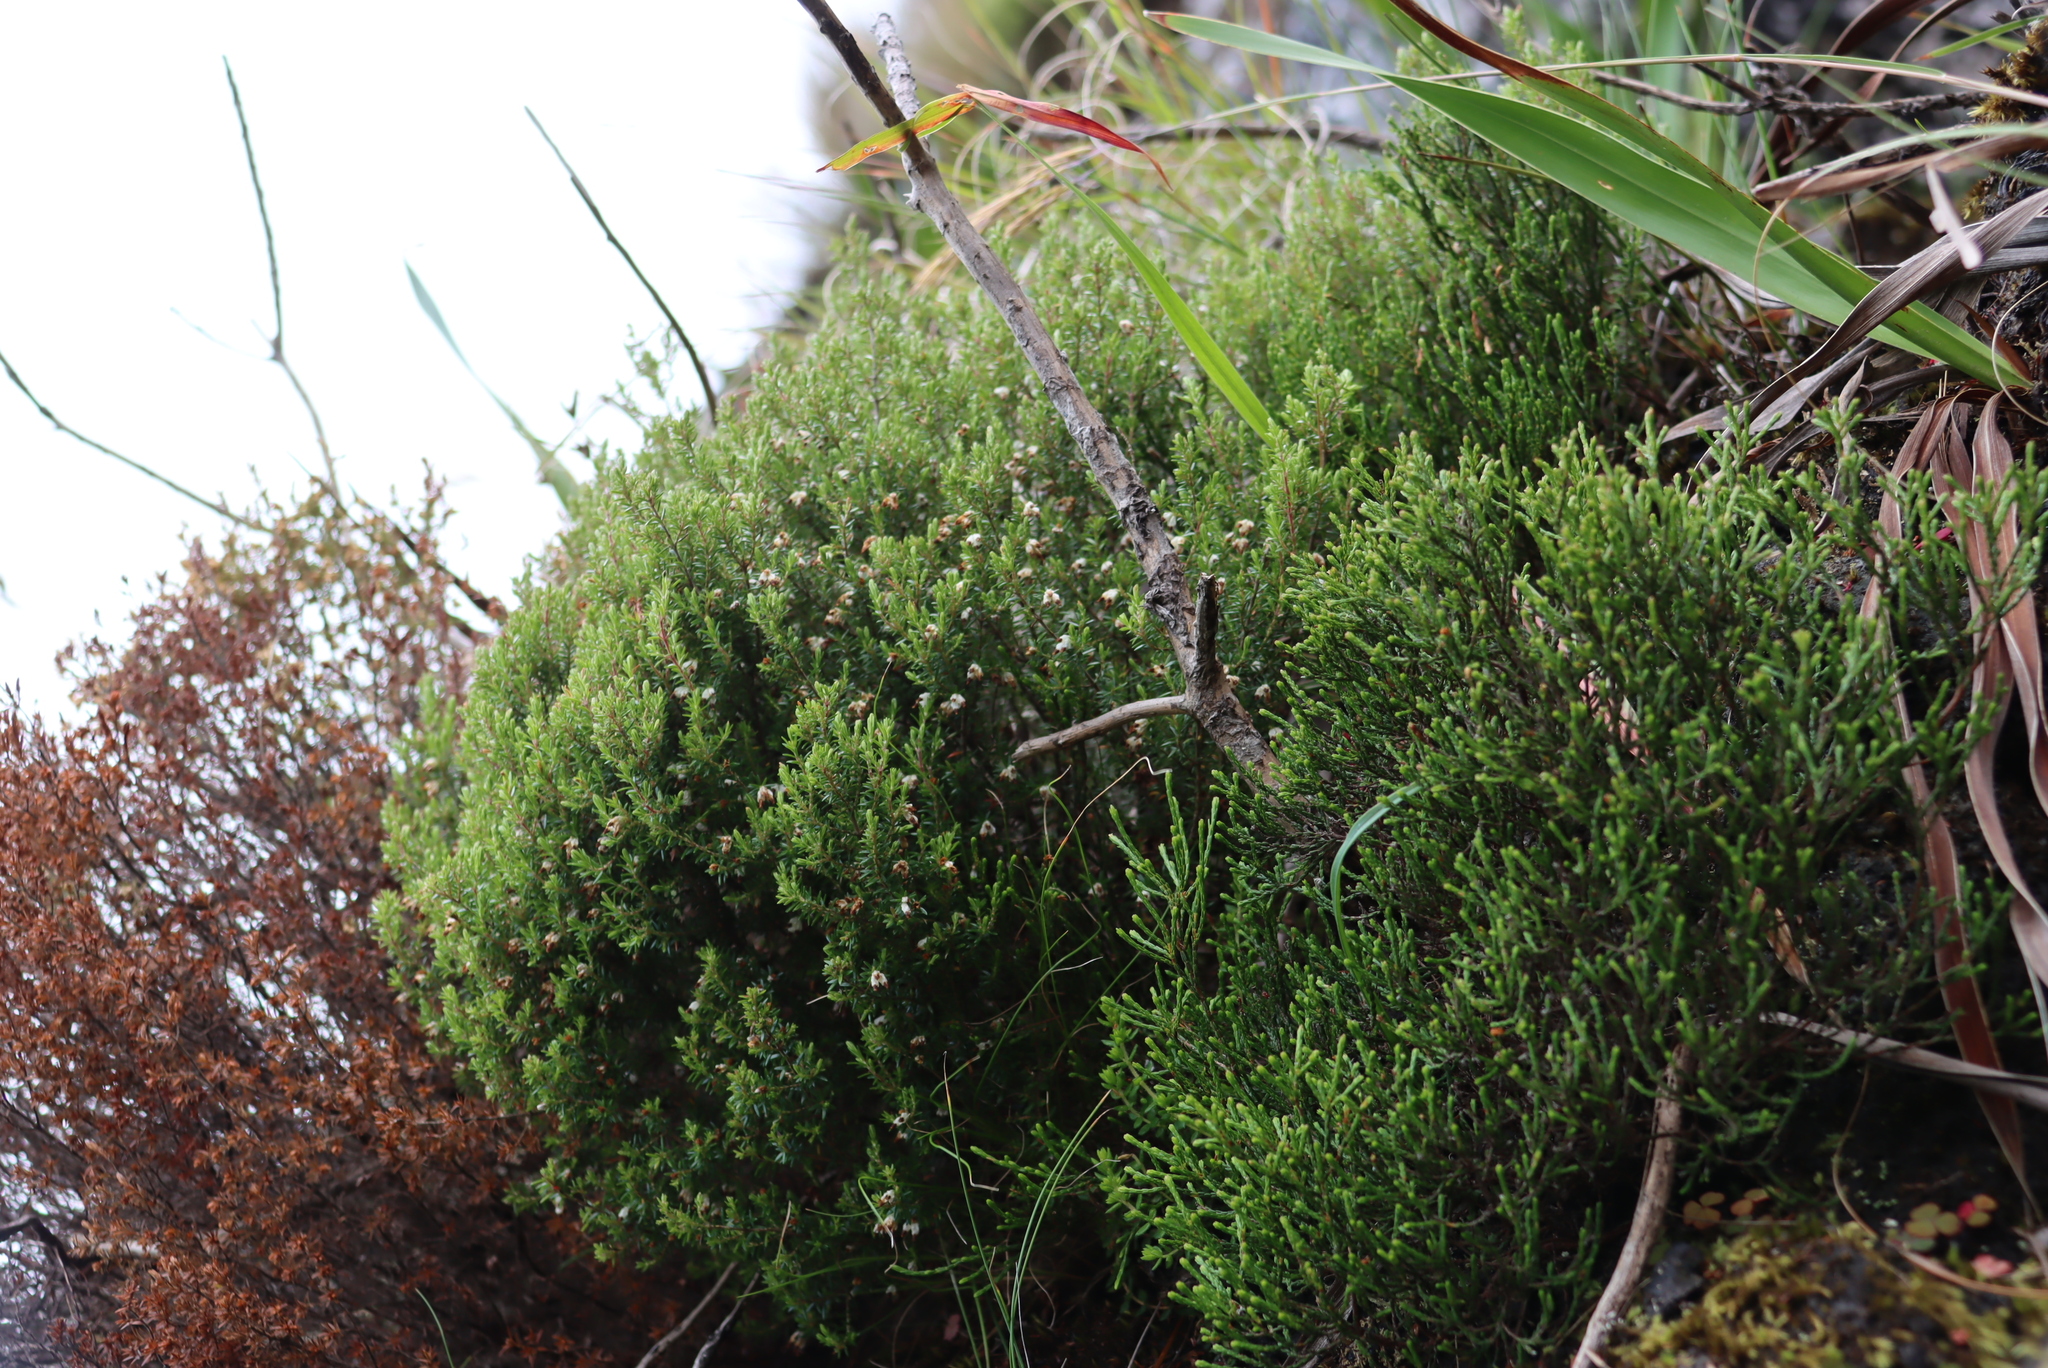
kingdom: Plantae
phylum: Tracheophyta
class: Magnoliopsida
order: Ericales
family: Ericaceae
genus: Erica
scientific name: Erica genistifolia
